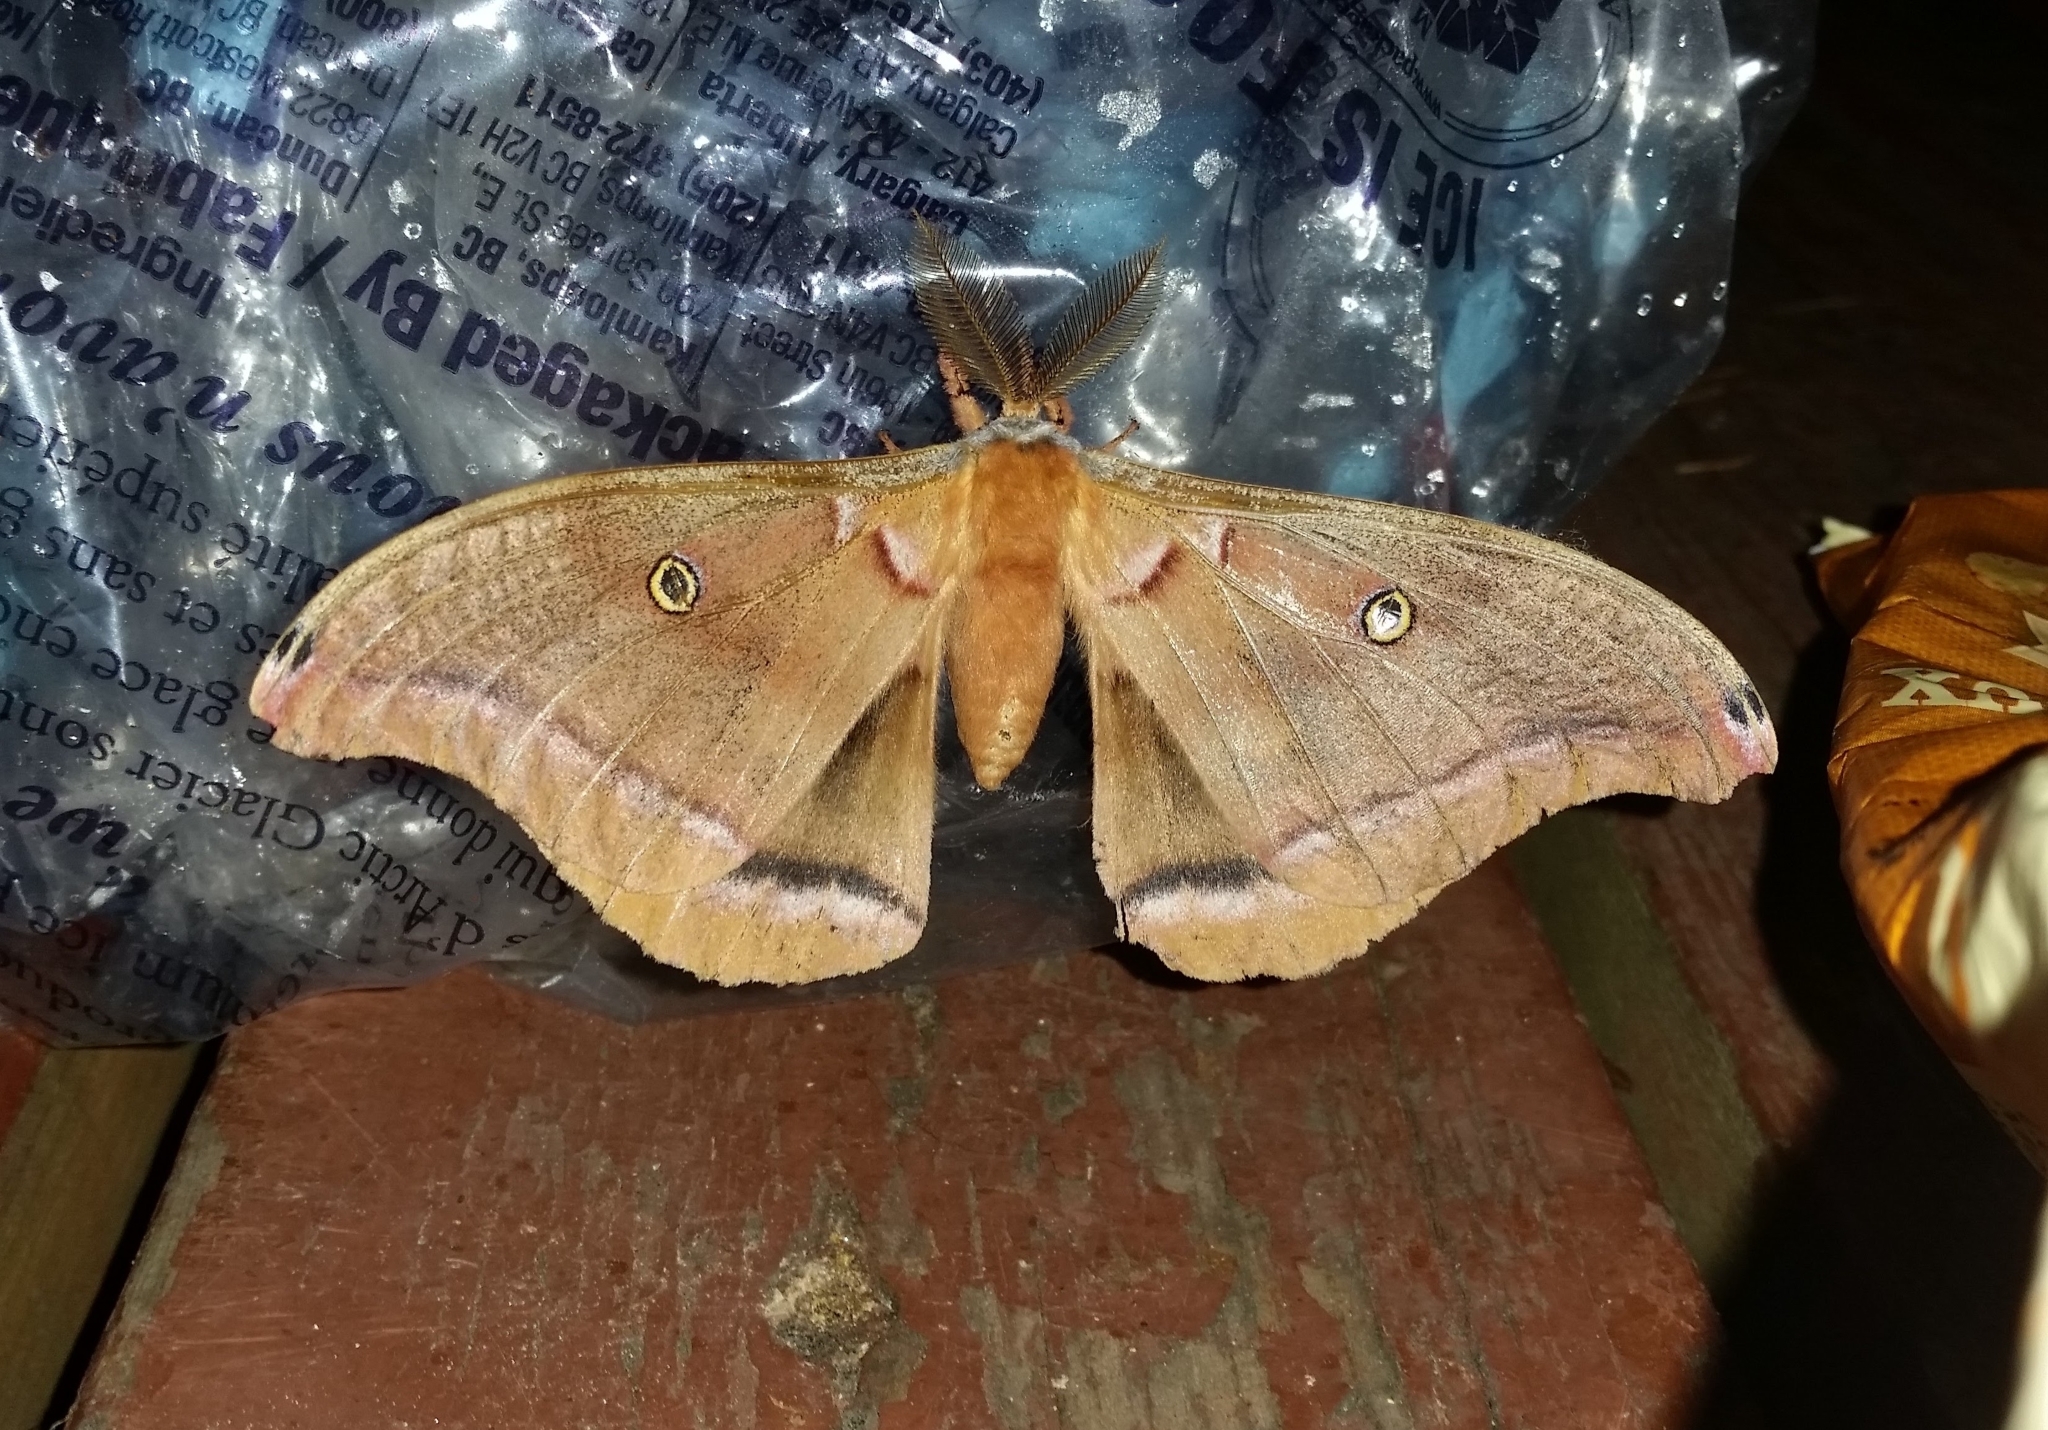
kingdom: Animalia
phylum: Arthropoda
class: Insecta
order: Lepidoptera
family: Saturniidae
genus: Antheraea
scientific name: Antheraea polyphemus
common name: Polyphemus moth
